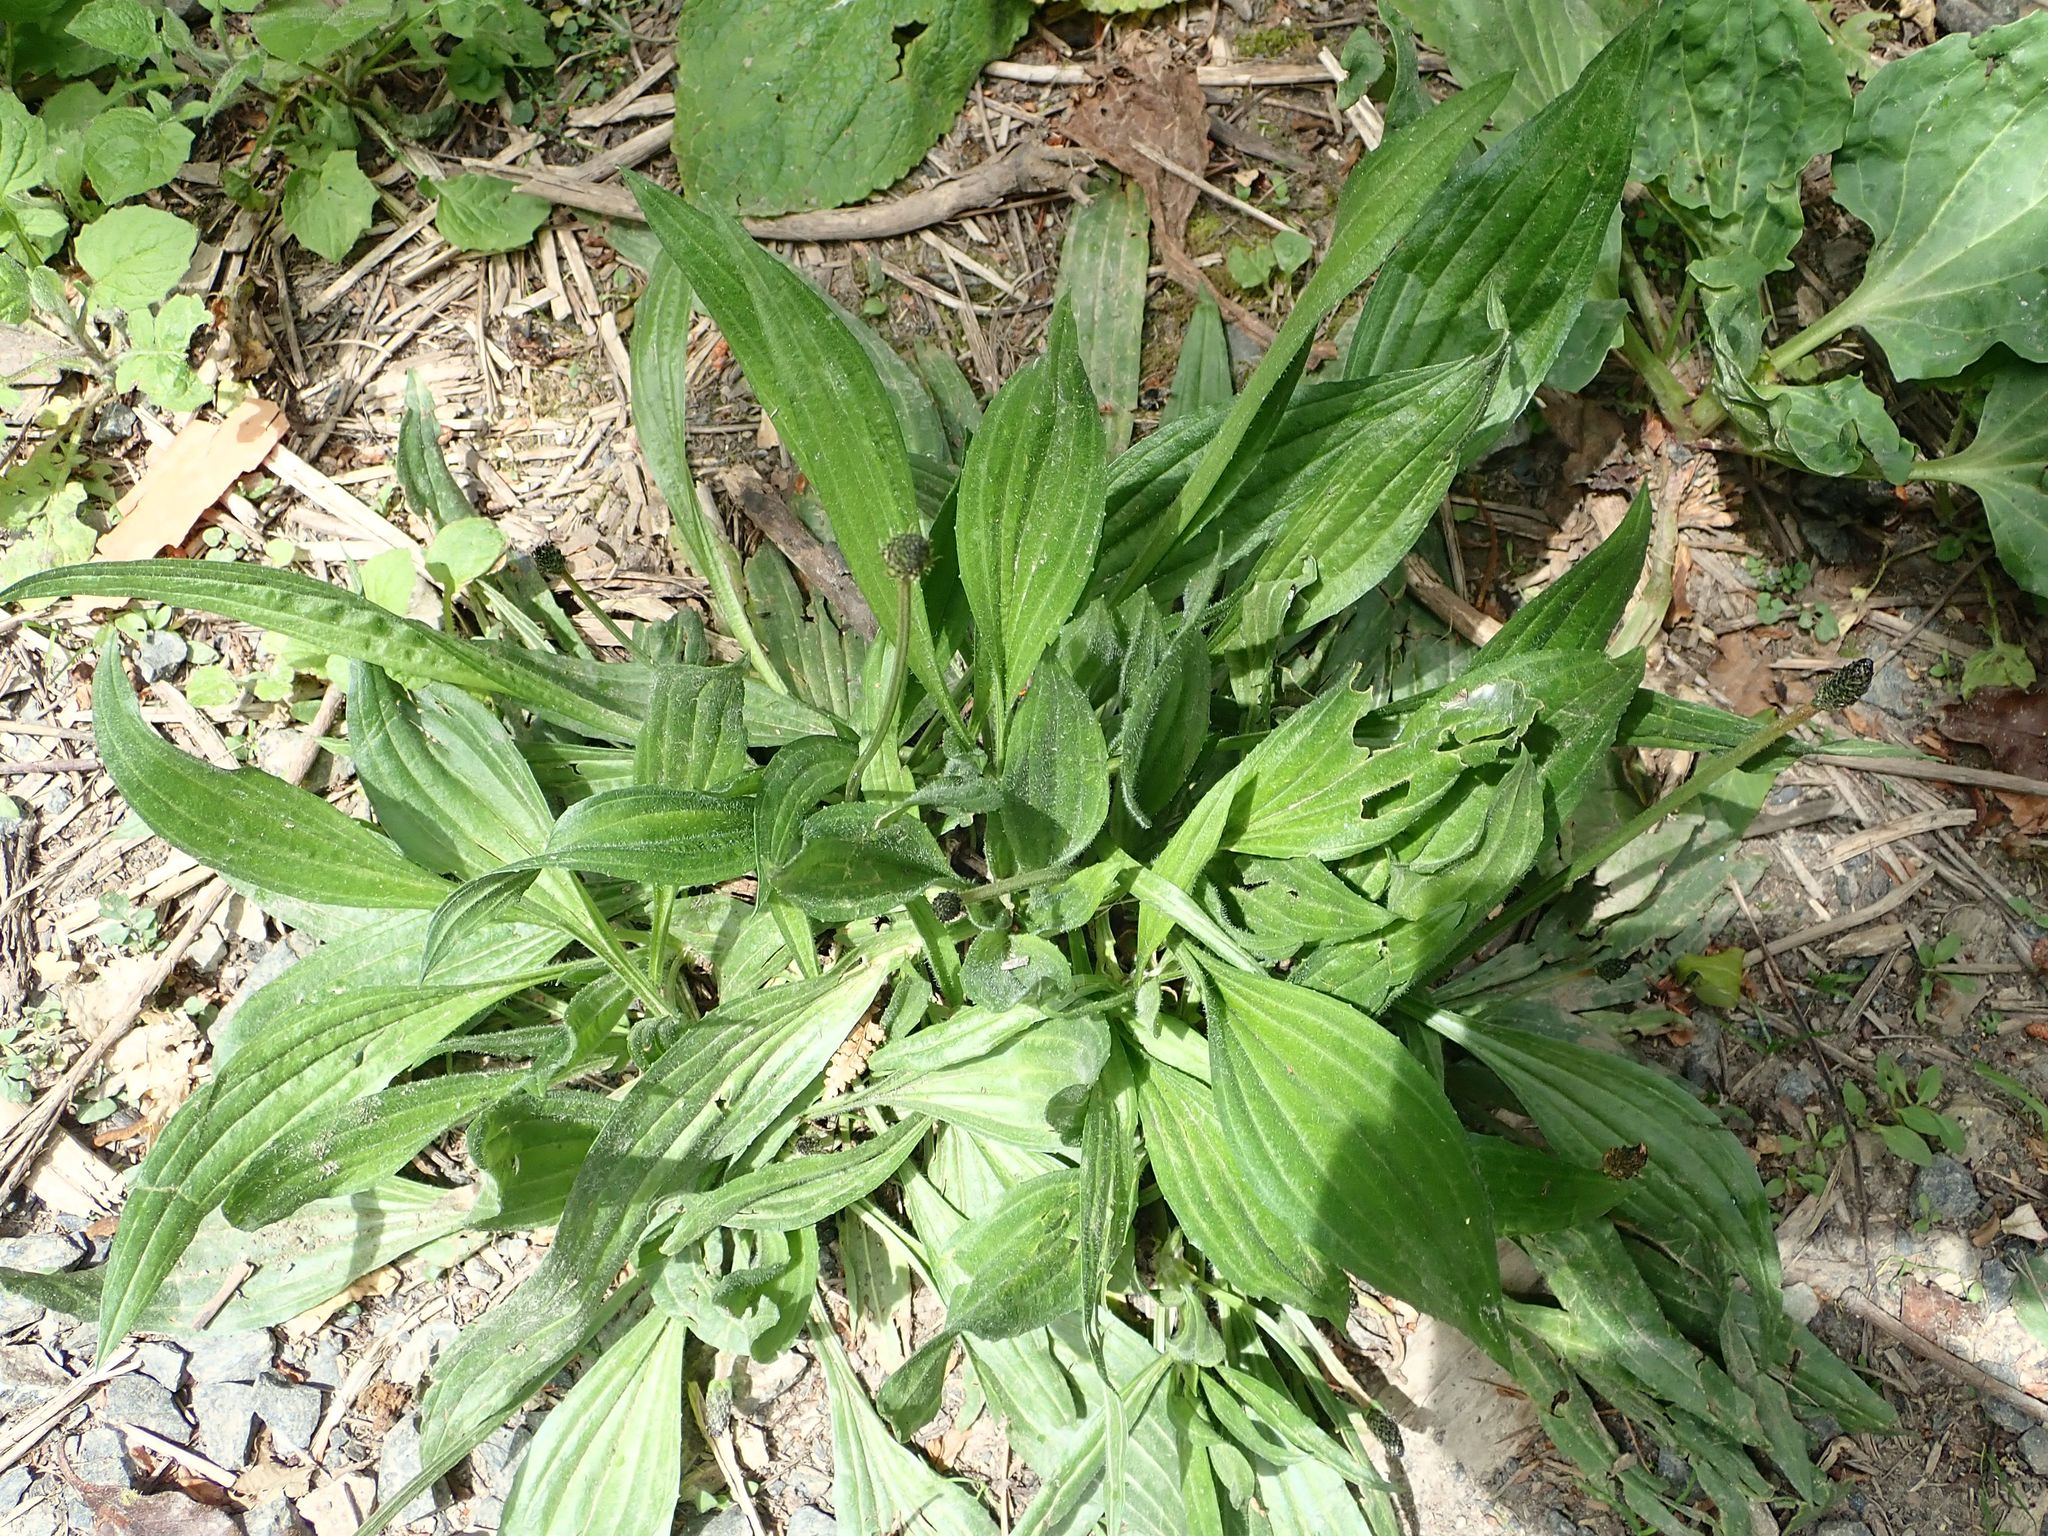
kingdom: Plantae
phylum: Tracheophyta
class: Magnoliopsida
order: Lamiales
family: Plantaginaceae
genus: Plantago
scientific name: Plantago lanceolata
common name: Ribwort plantain
